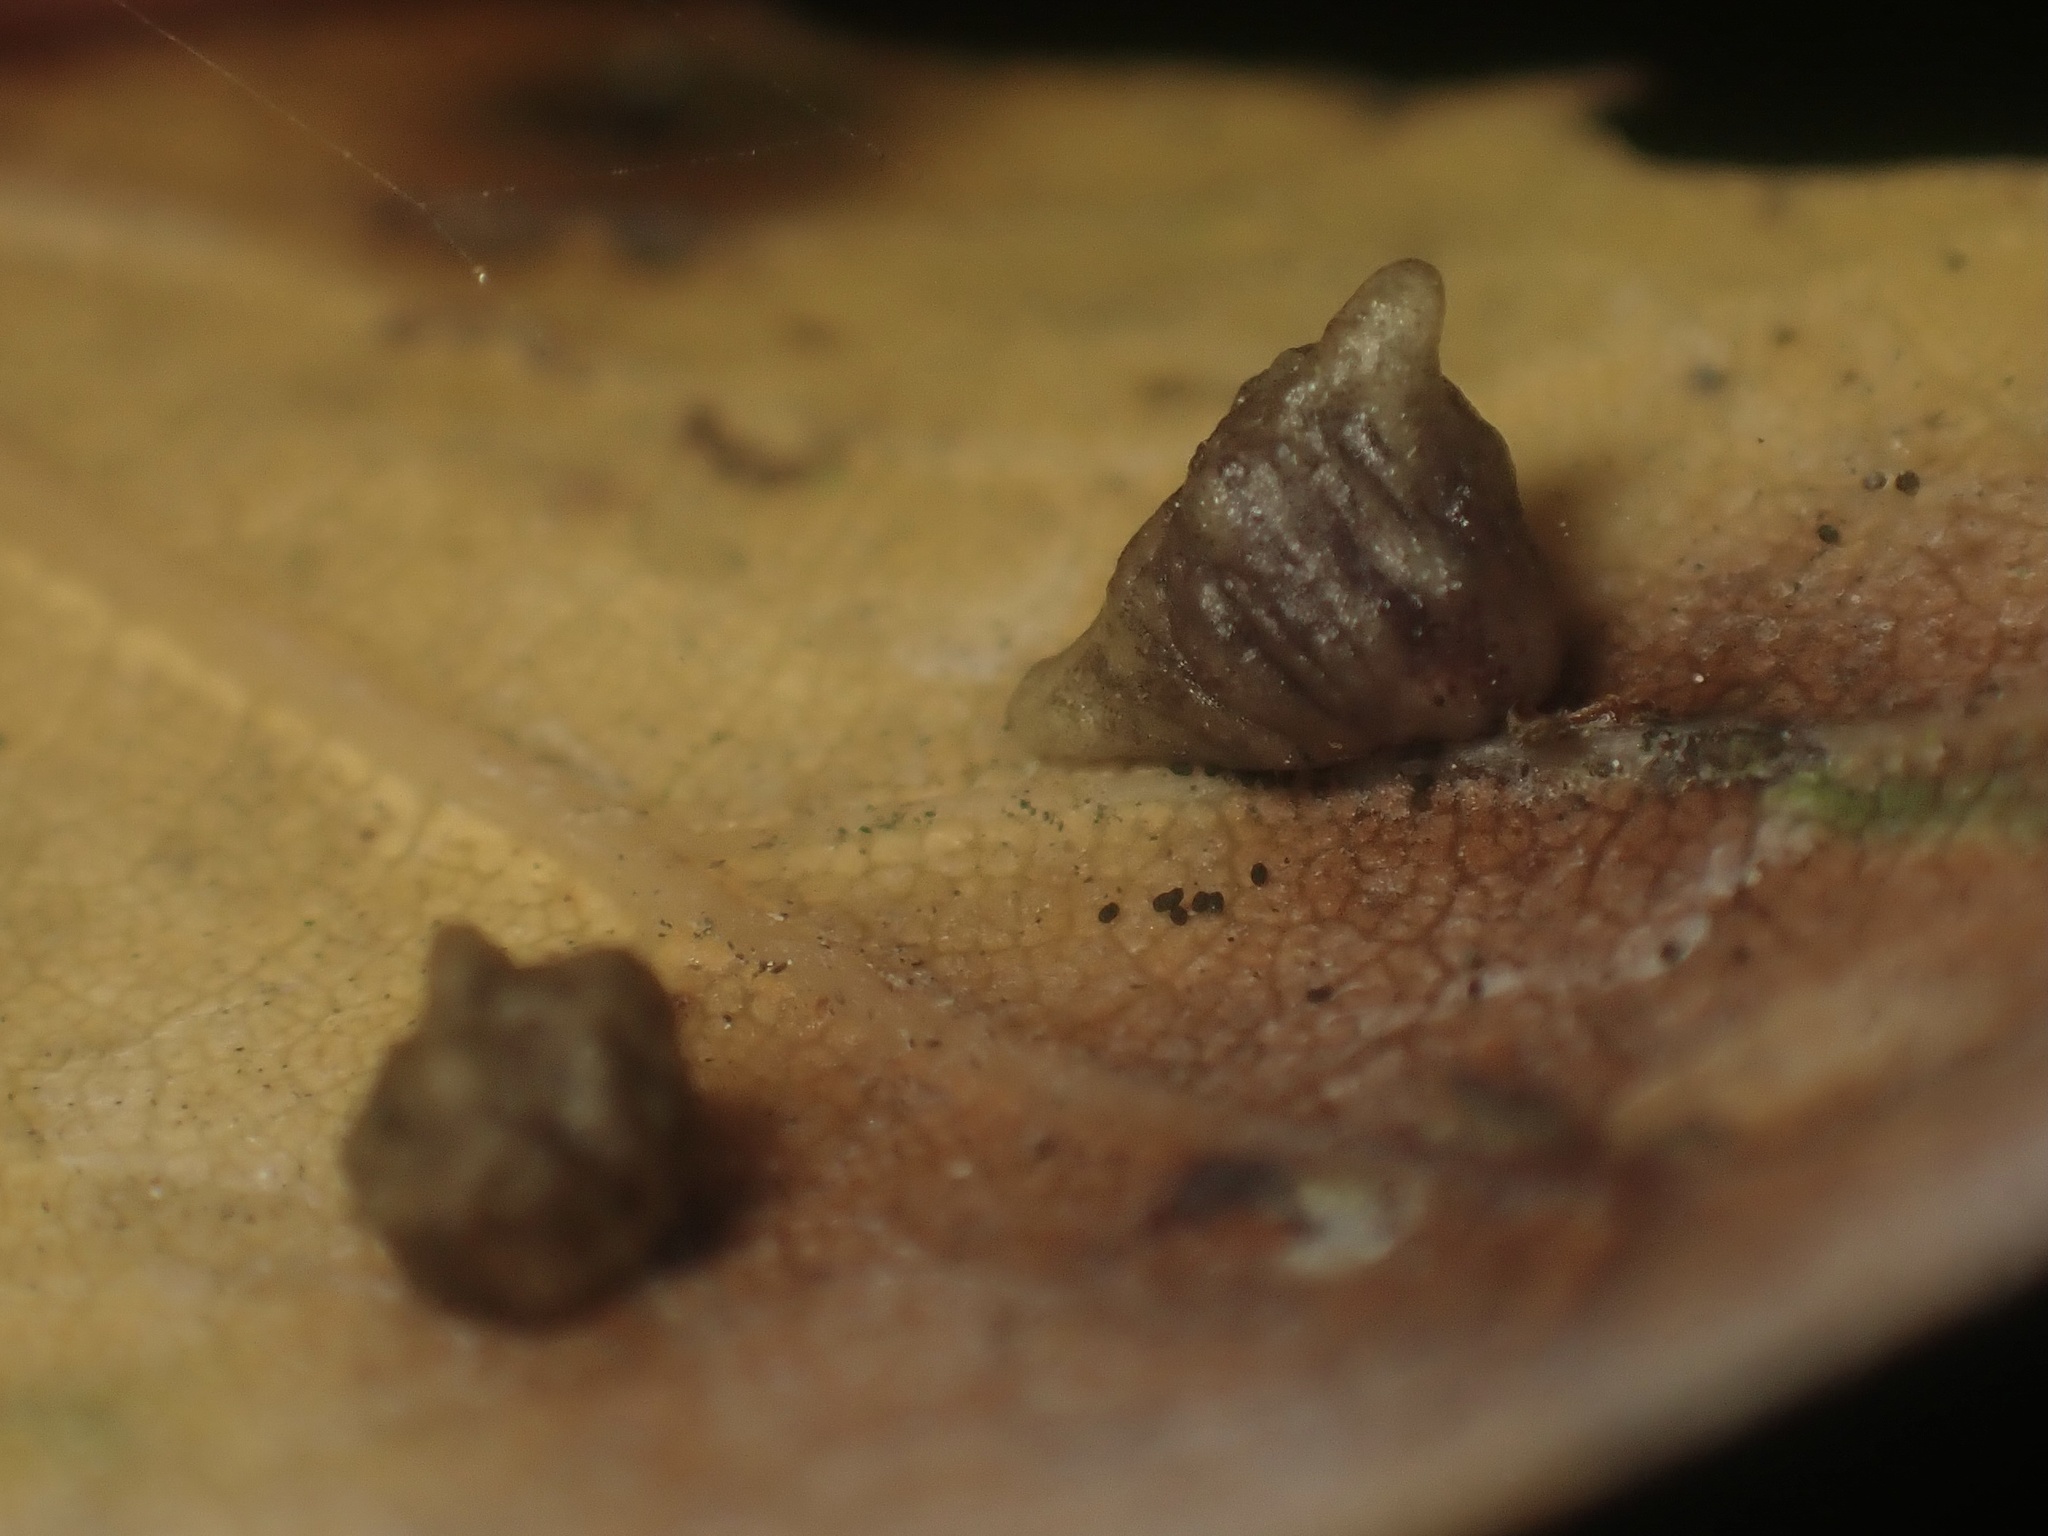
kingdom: Animalia
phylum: Arthropoda
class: Insecta
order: Hymenoptera
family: Cynipidae
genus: Dryocosmus
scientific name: Dryocosmus
